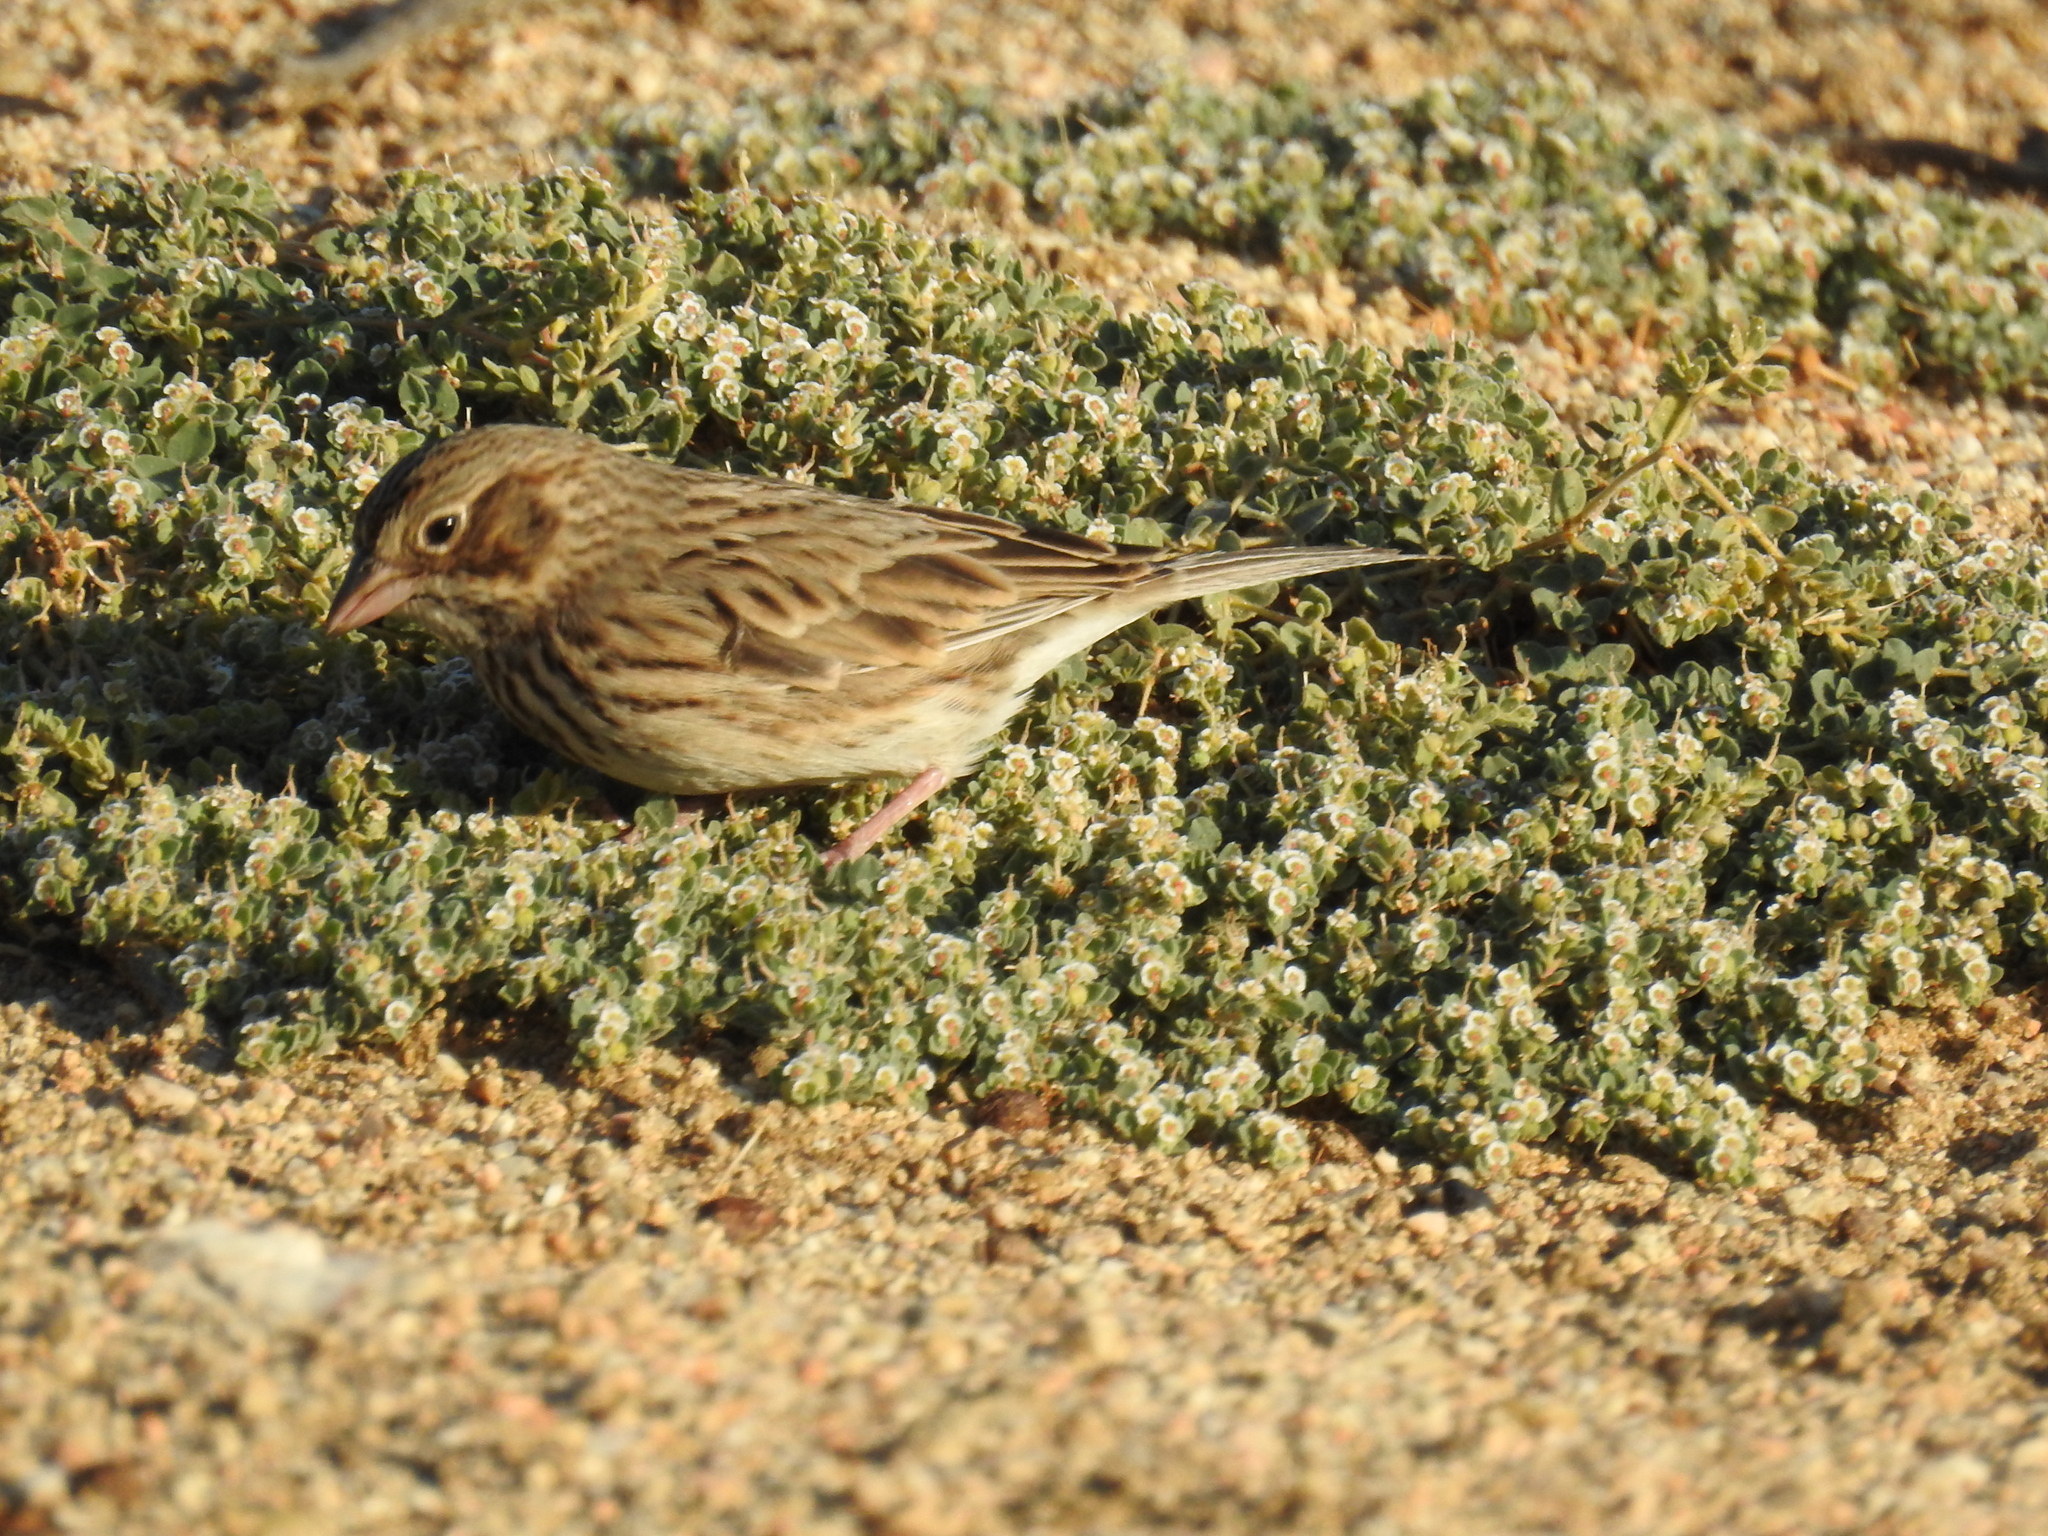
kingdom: Animalia
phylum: Chordata
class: Aves
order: Passeriformes
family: Passerellidae
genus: Pooecetes
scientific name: Pooecetes gramineus
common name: Vesper sparrow
